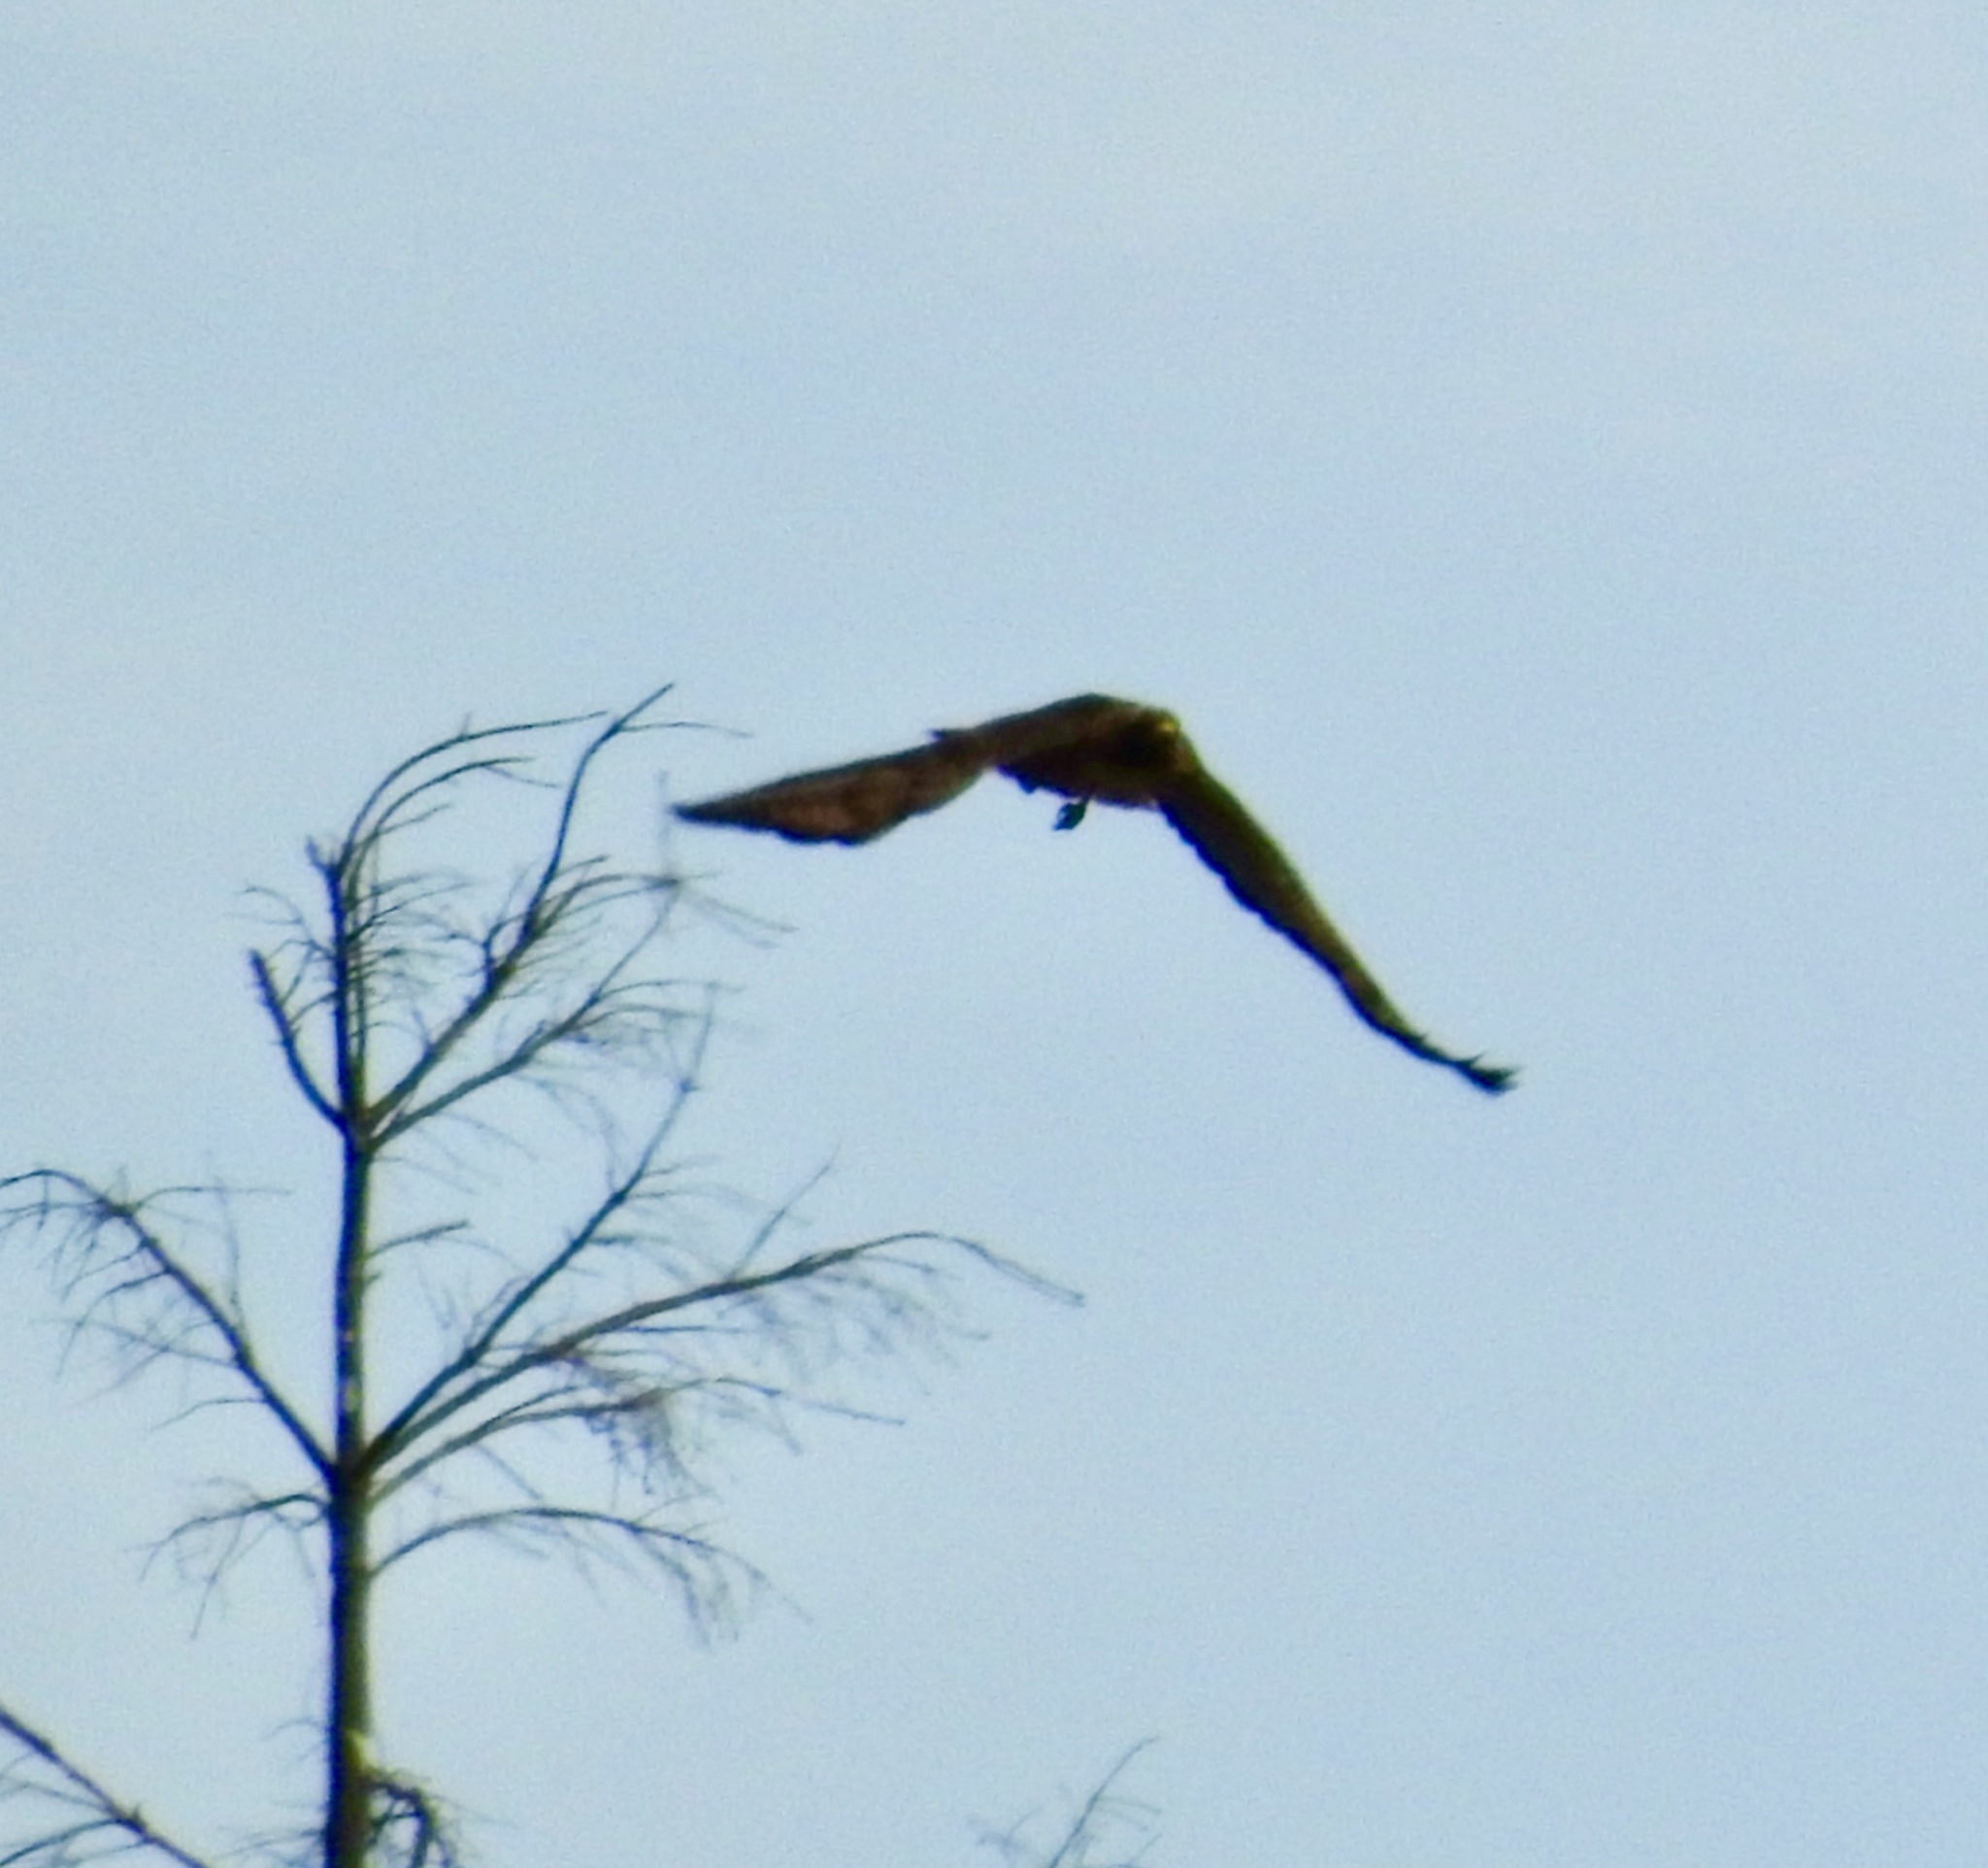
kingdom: Animalia
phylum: Chordata
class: Aves
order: Accipitriformes
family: Accipitridae
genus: Buteo
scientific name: Buteo jamaicensis
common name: Red-tailed hawk
